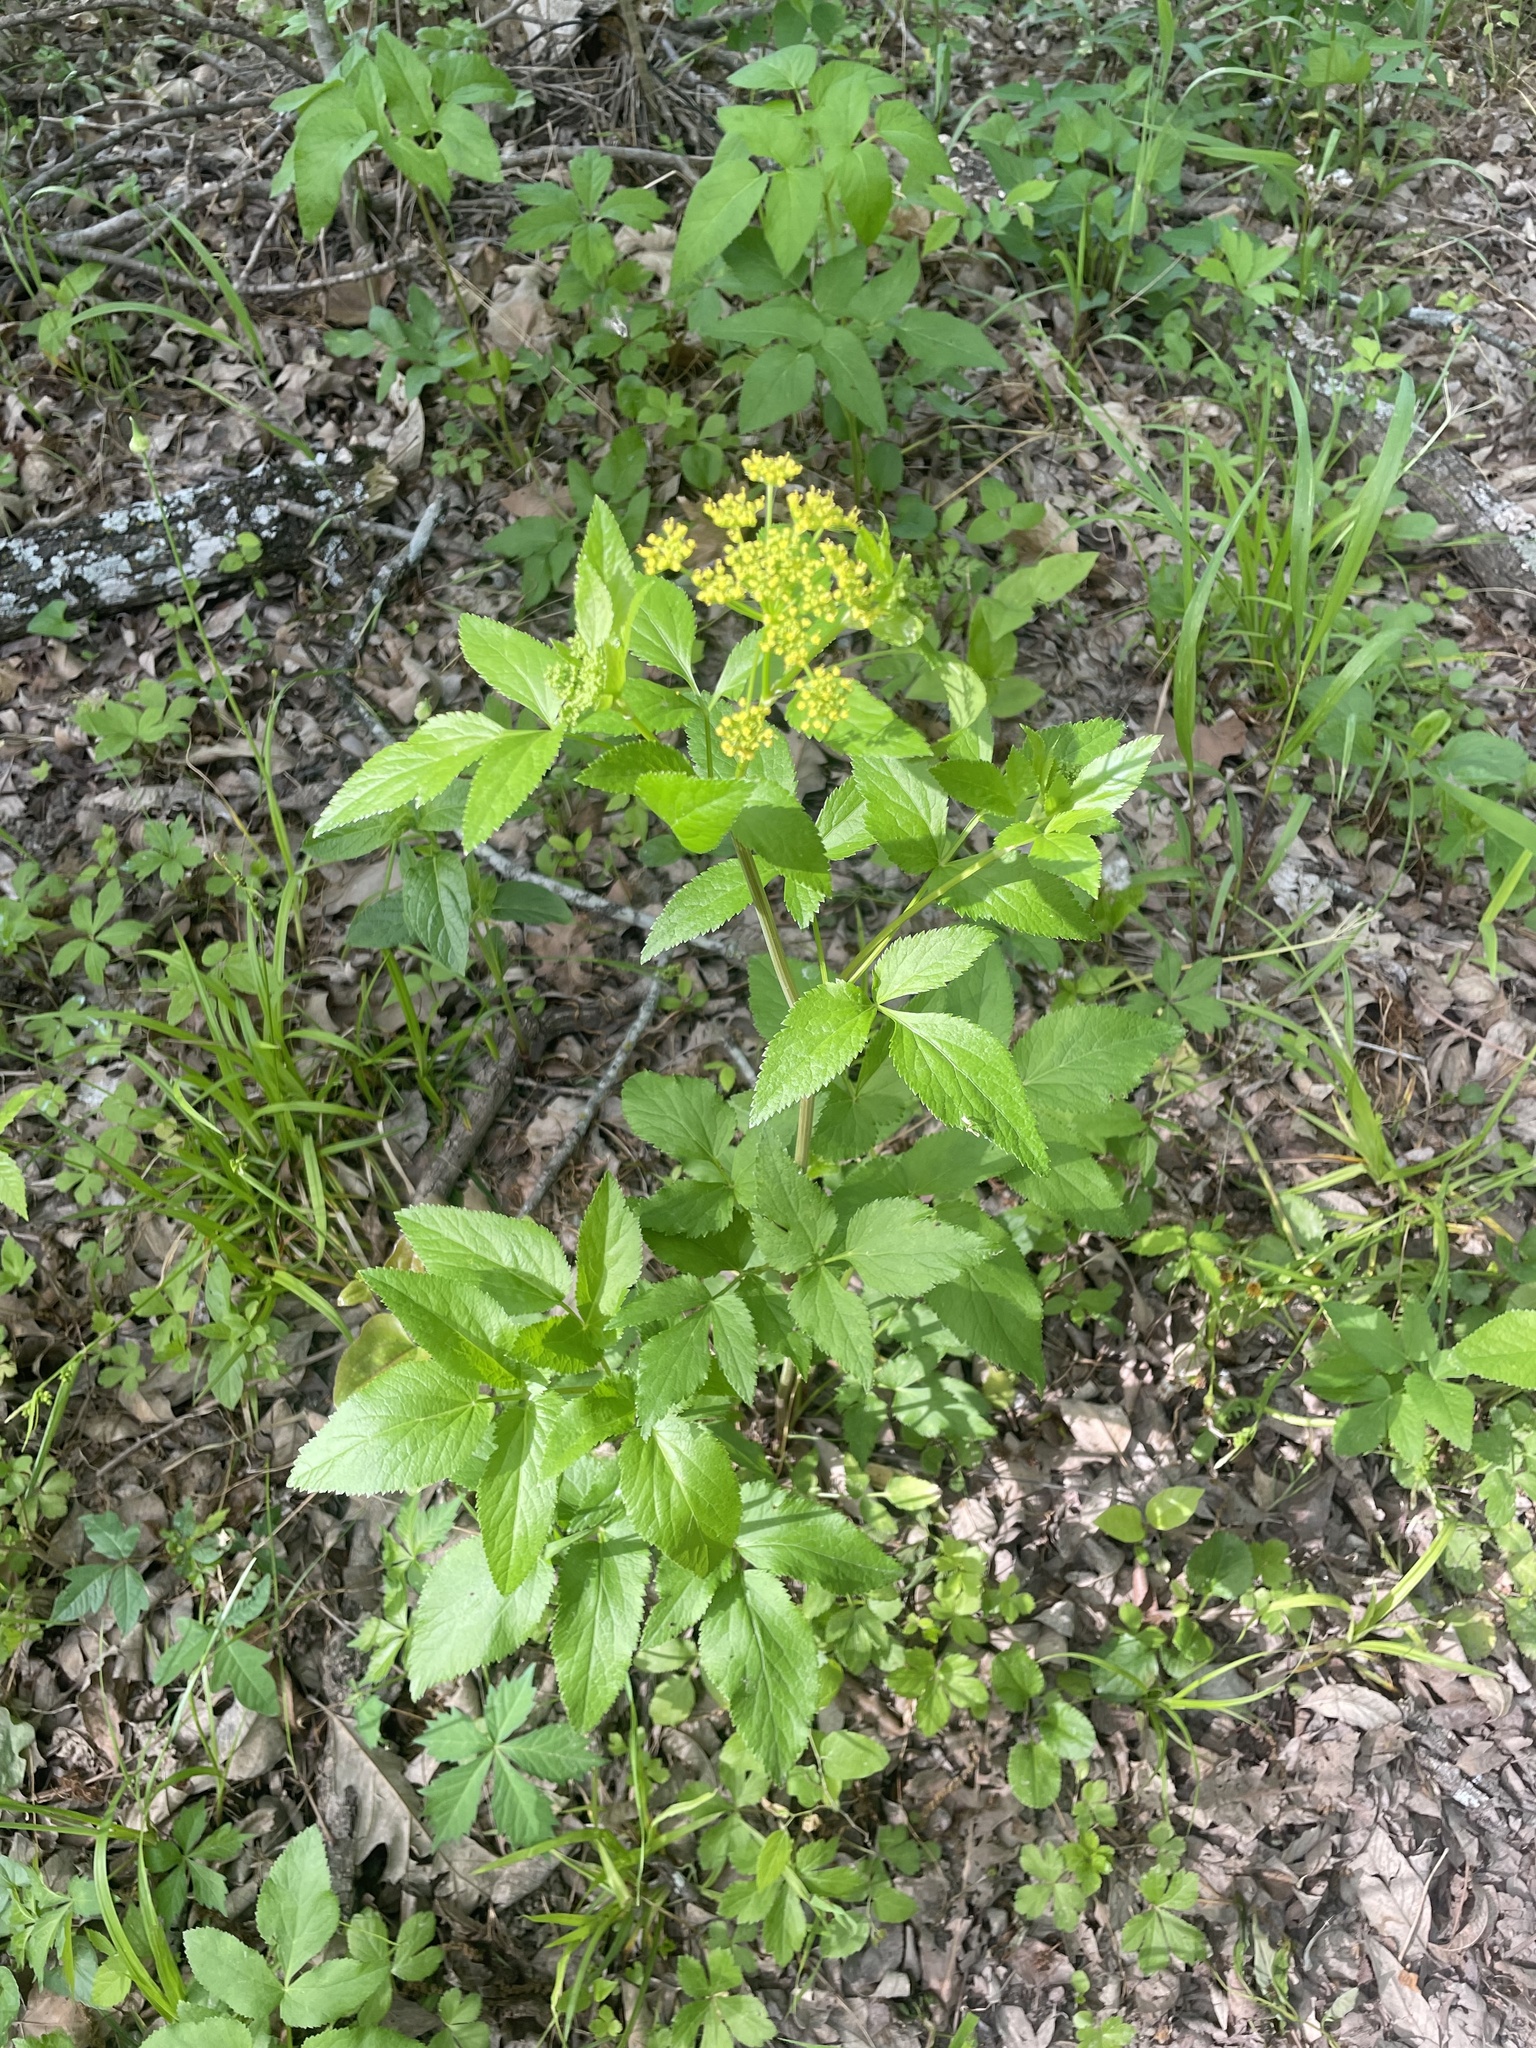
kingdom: Plantae
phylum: Tracheophyta
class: Magnoliopsida
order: Apiales
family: Apiaceae
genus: Zizia
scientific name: Zizia aurea
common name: Golden alexanders
